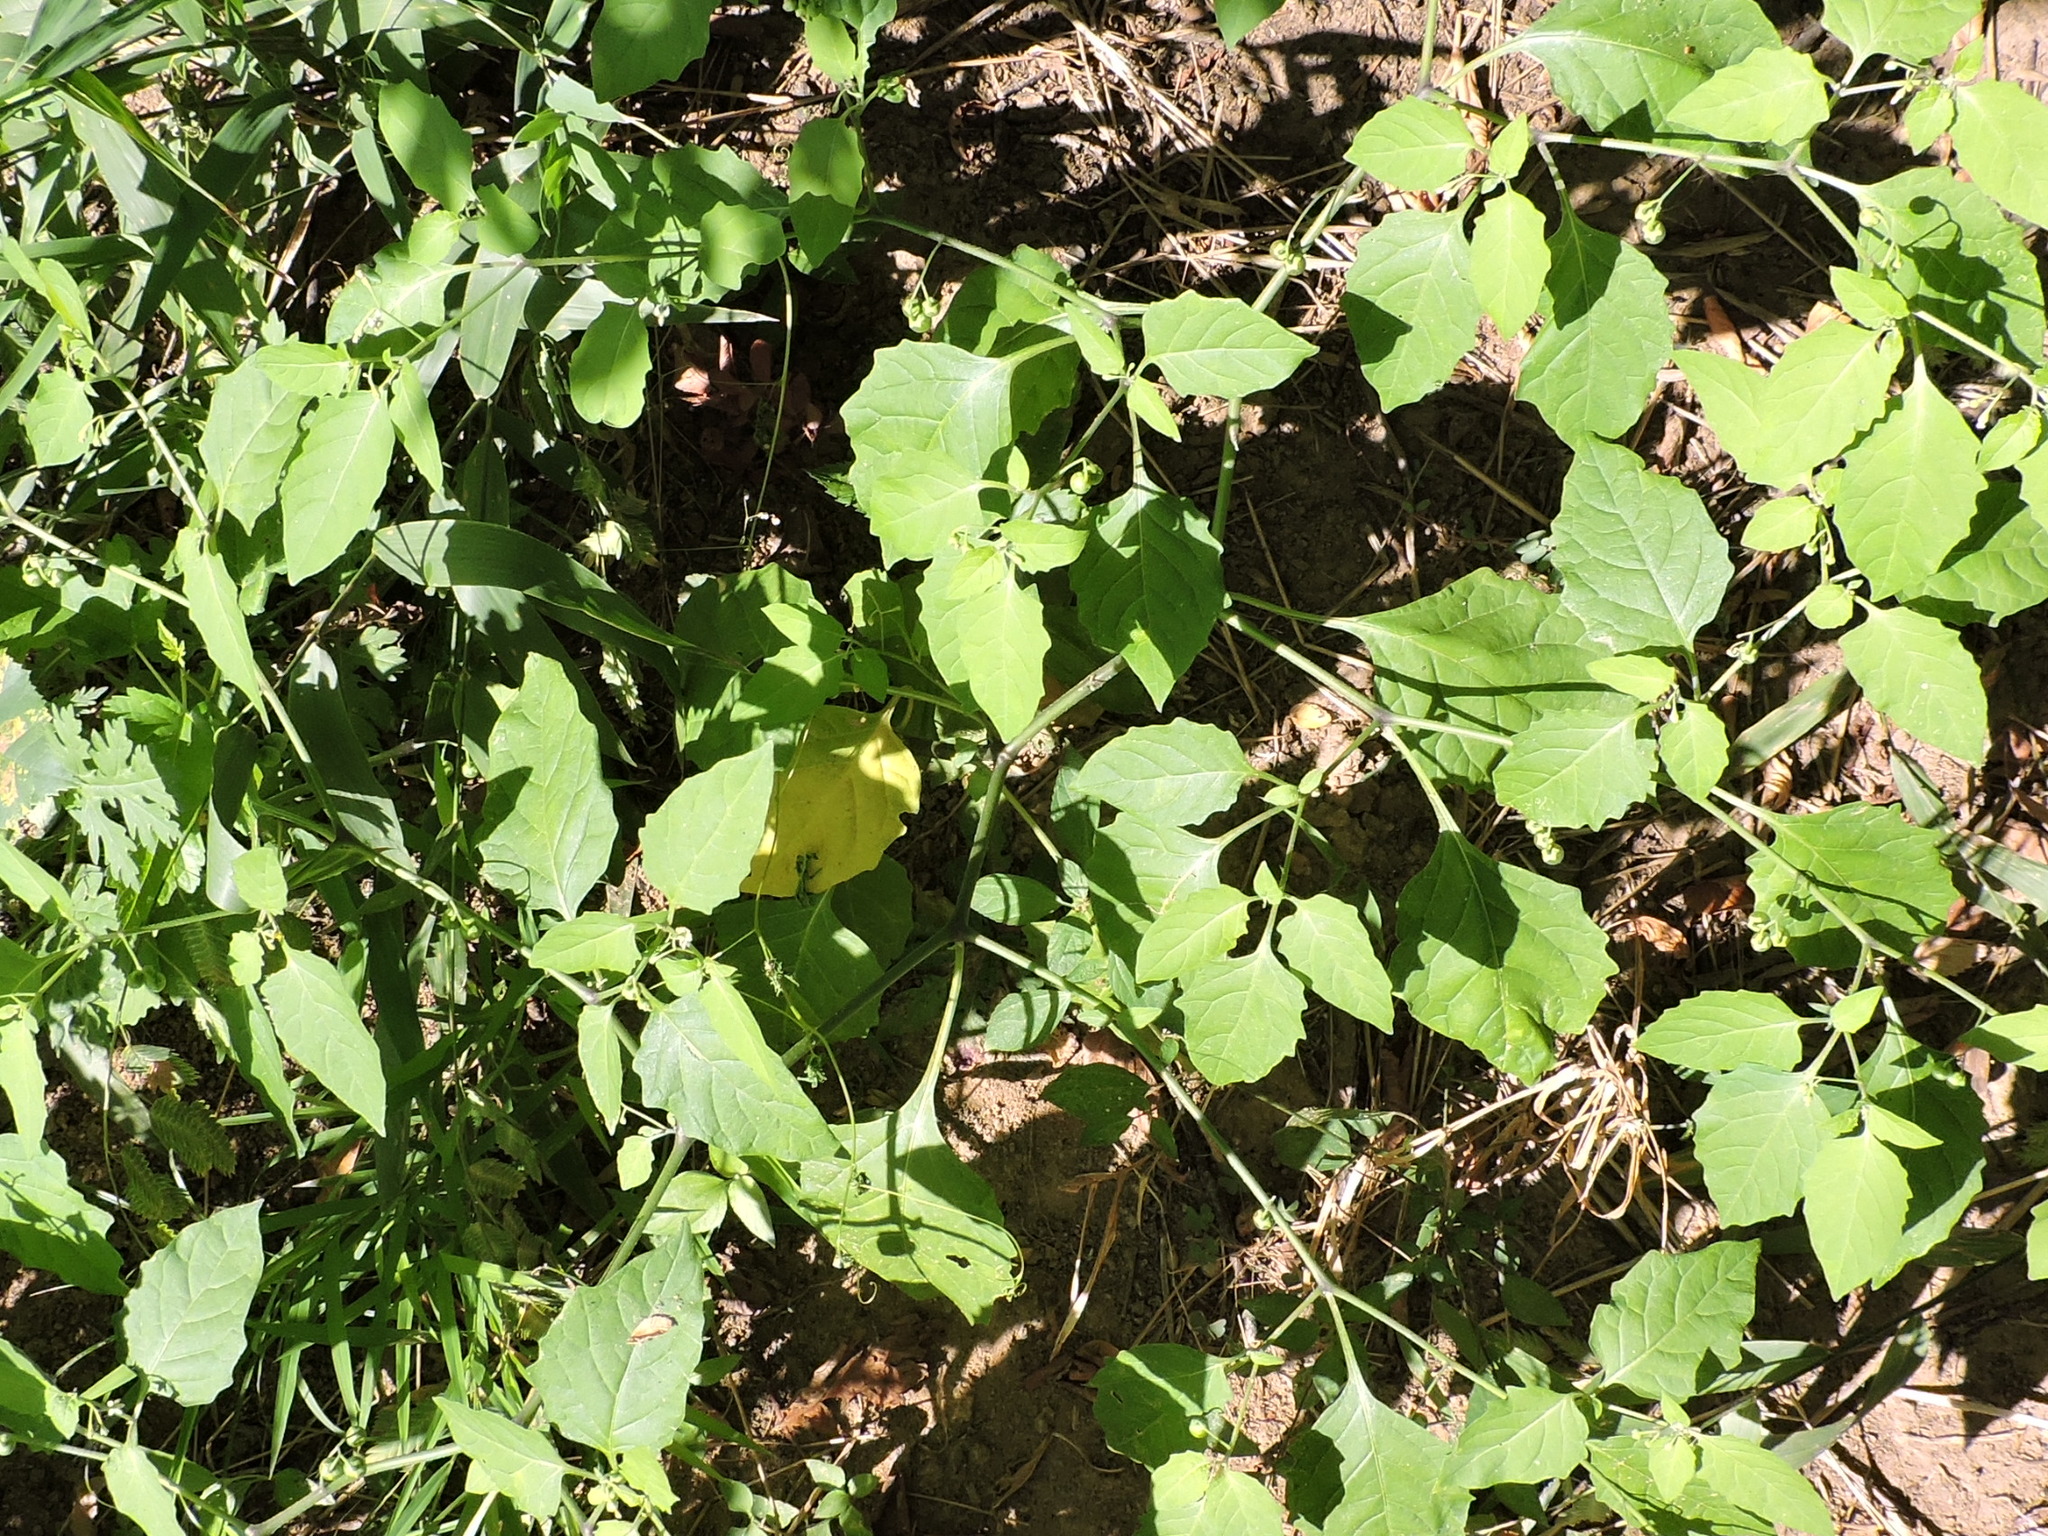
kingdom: Plantae
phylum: Tracheophyta
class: Magnoliopsida
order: Solanales
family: Solanaceae
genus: Solanum
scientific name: Solanum emulans
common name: Eastern black nightshade
